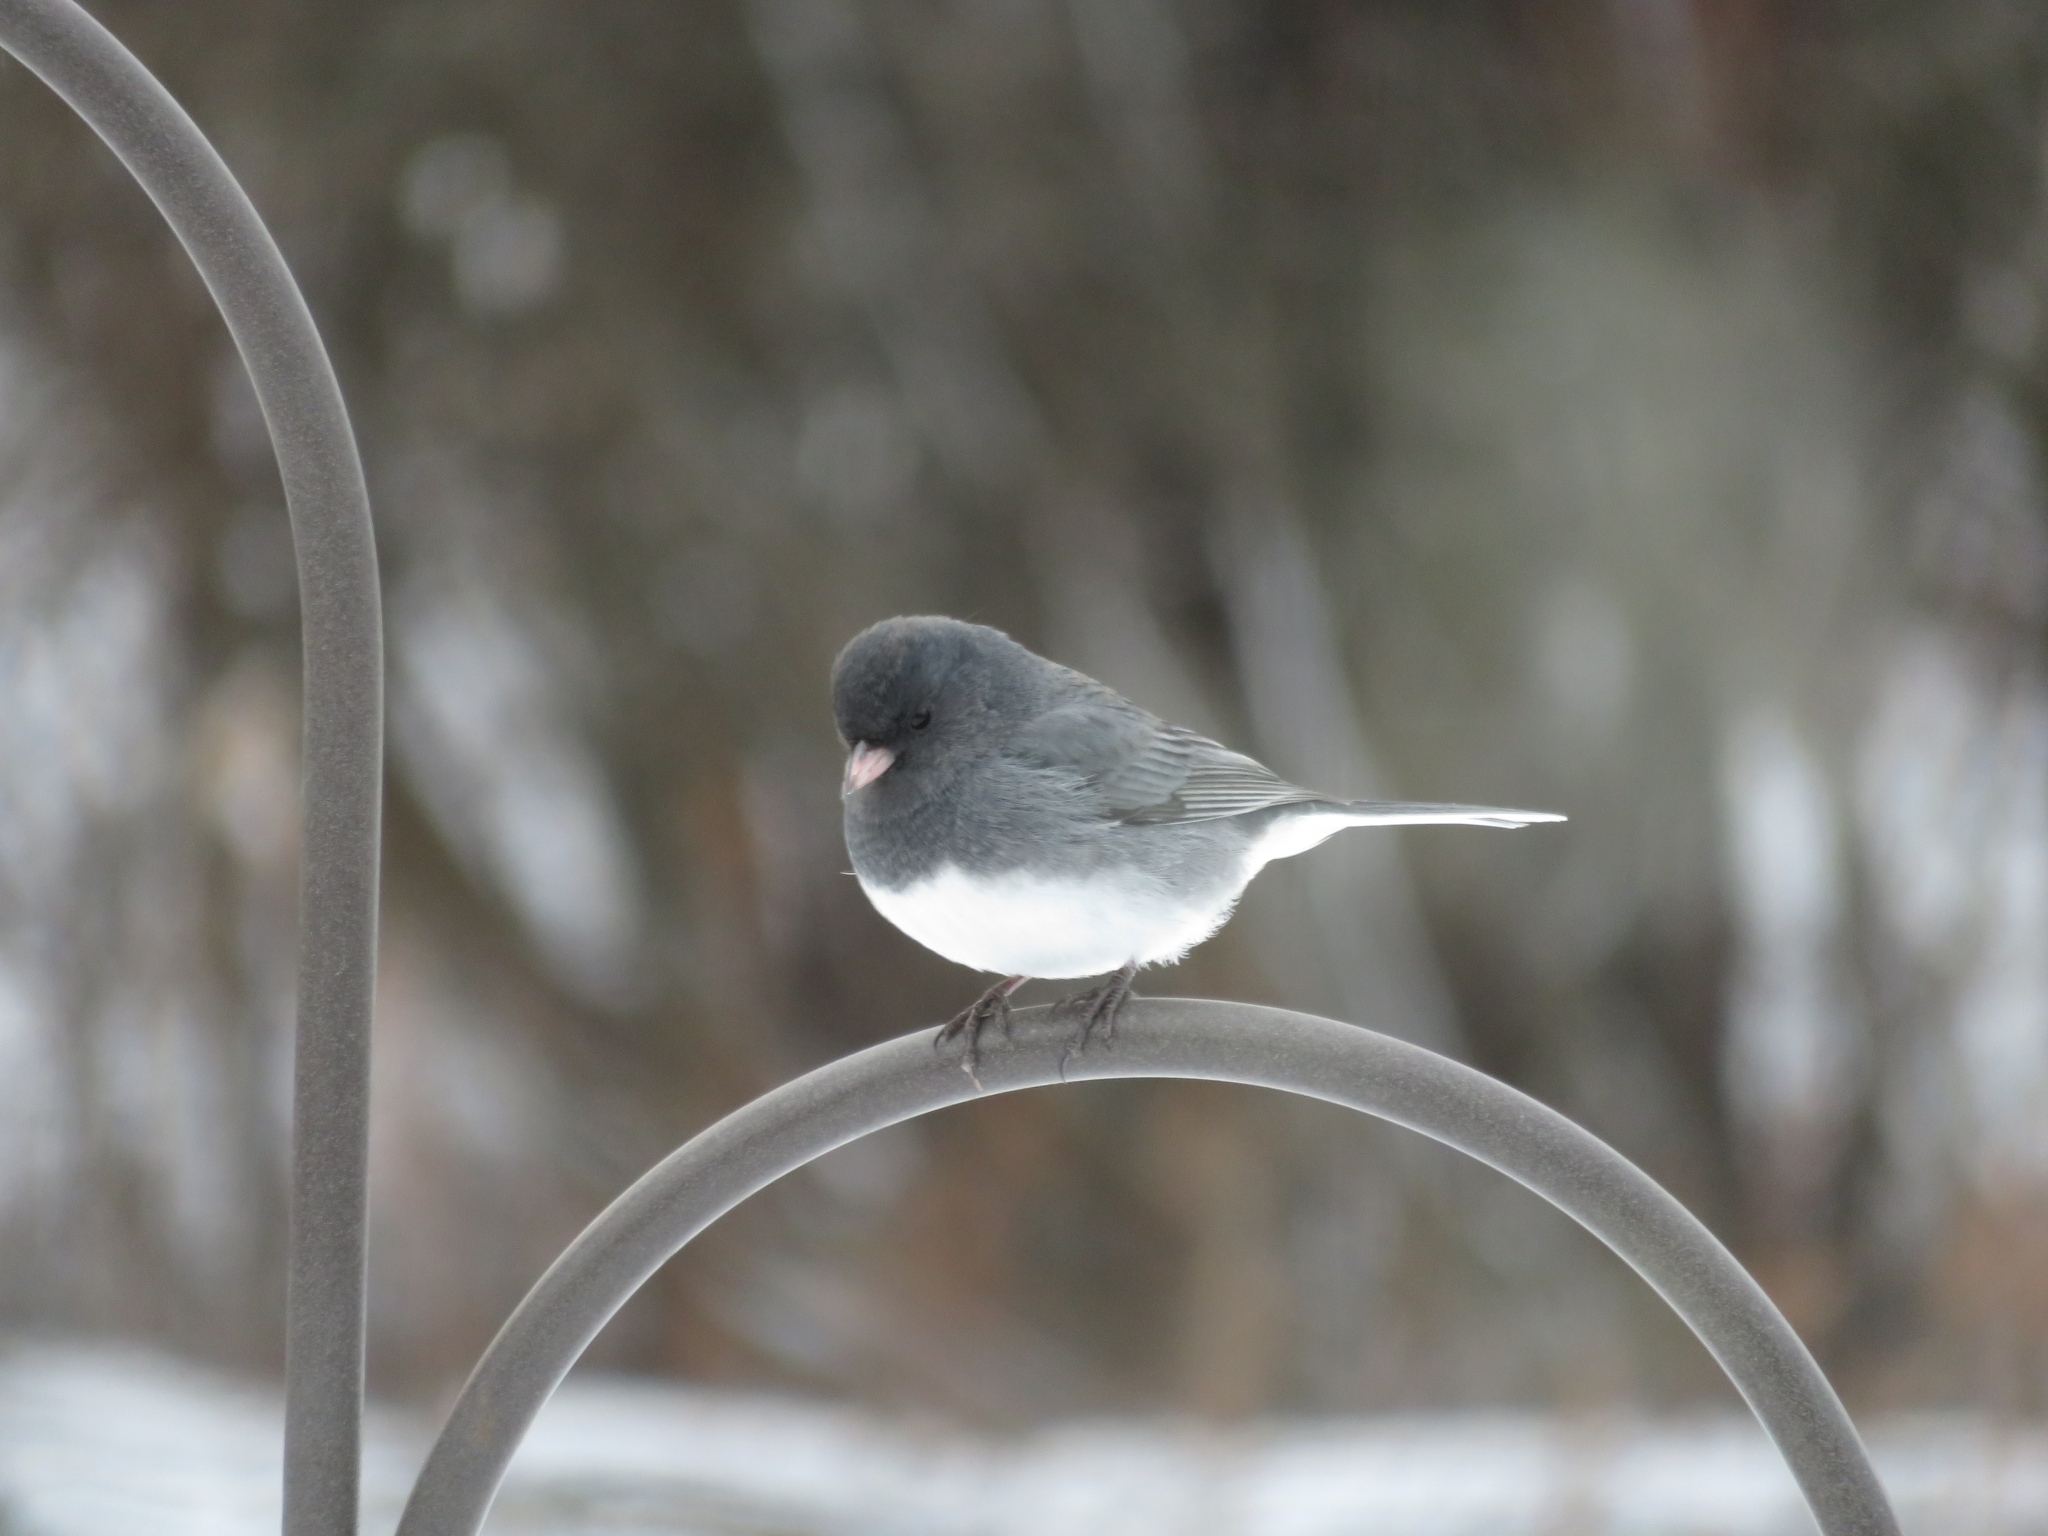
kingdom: Animalia
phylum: Chordata
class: Aves
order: Passeriformes
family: Passerellidae
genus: Junco
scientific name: Junco hyemalis
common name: Dark-eyed junco
